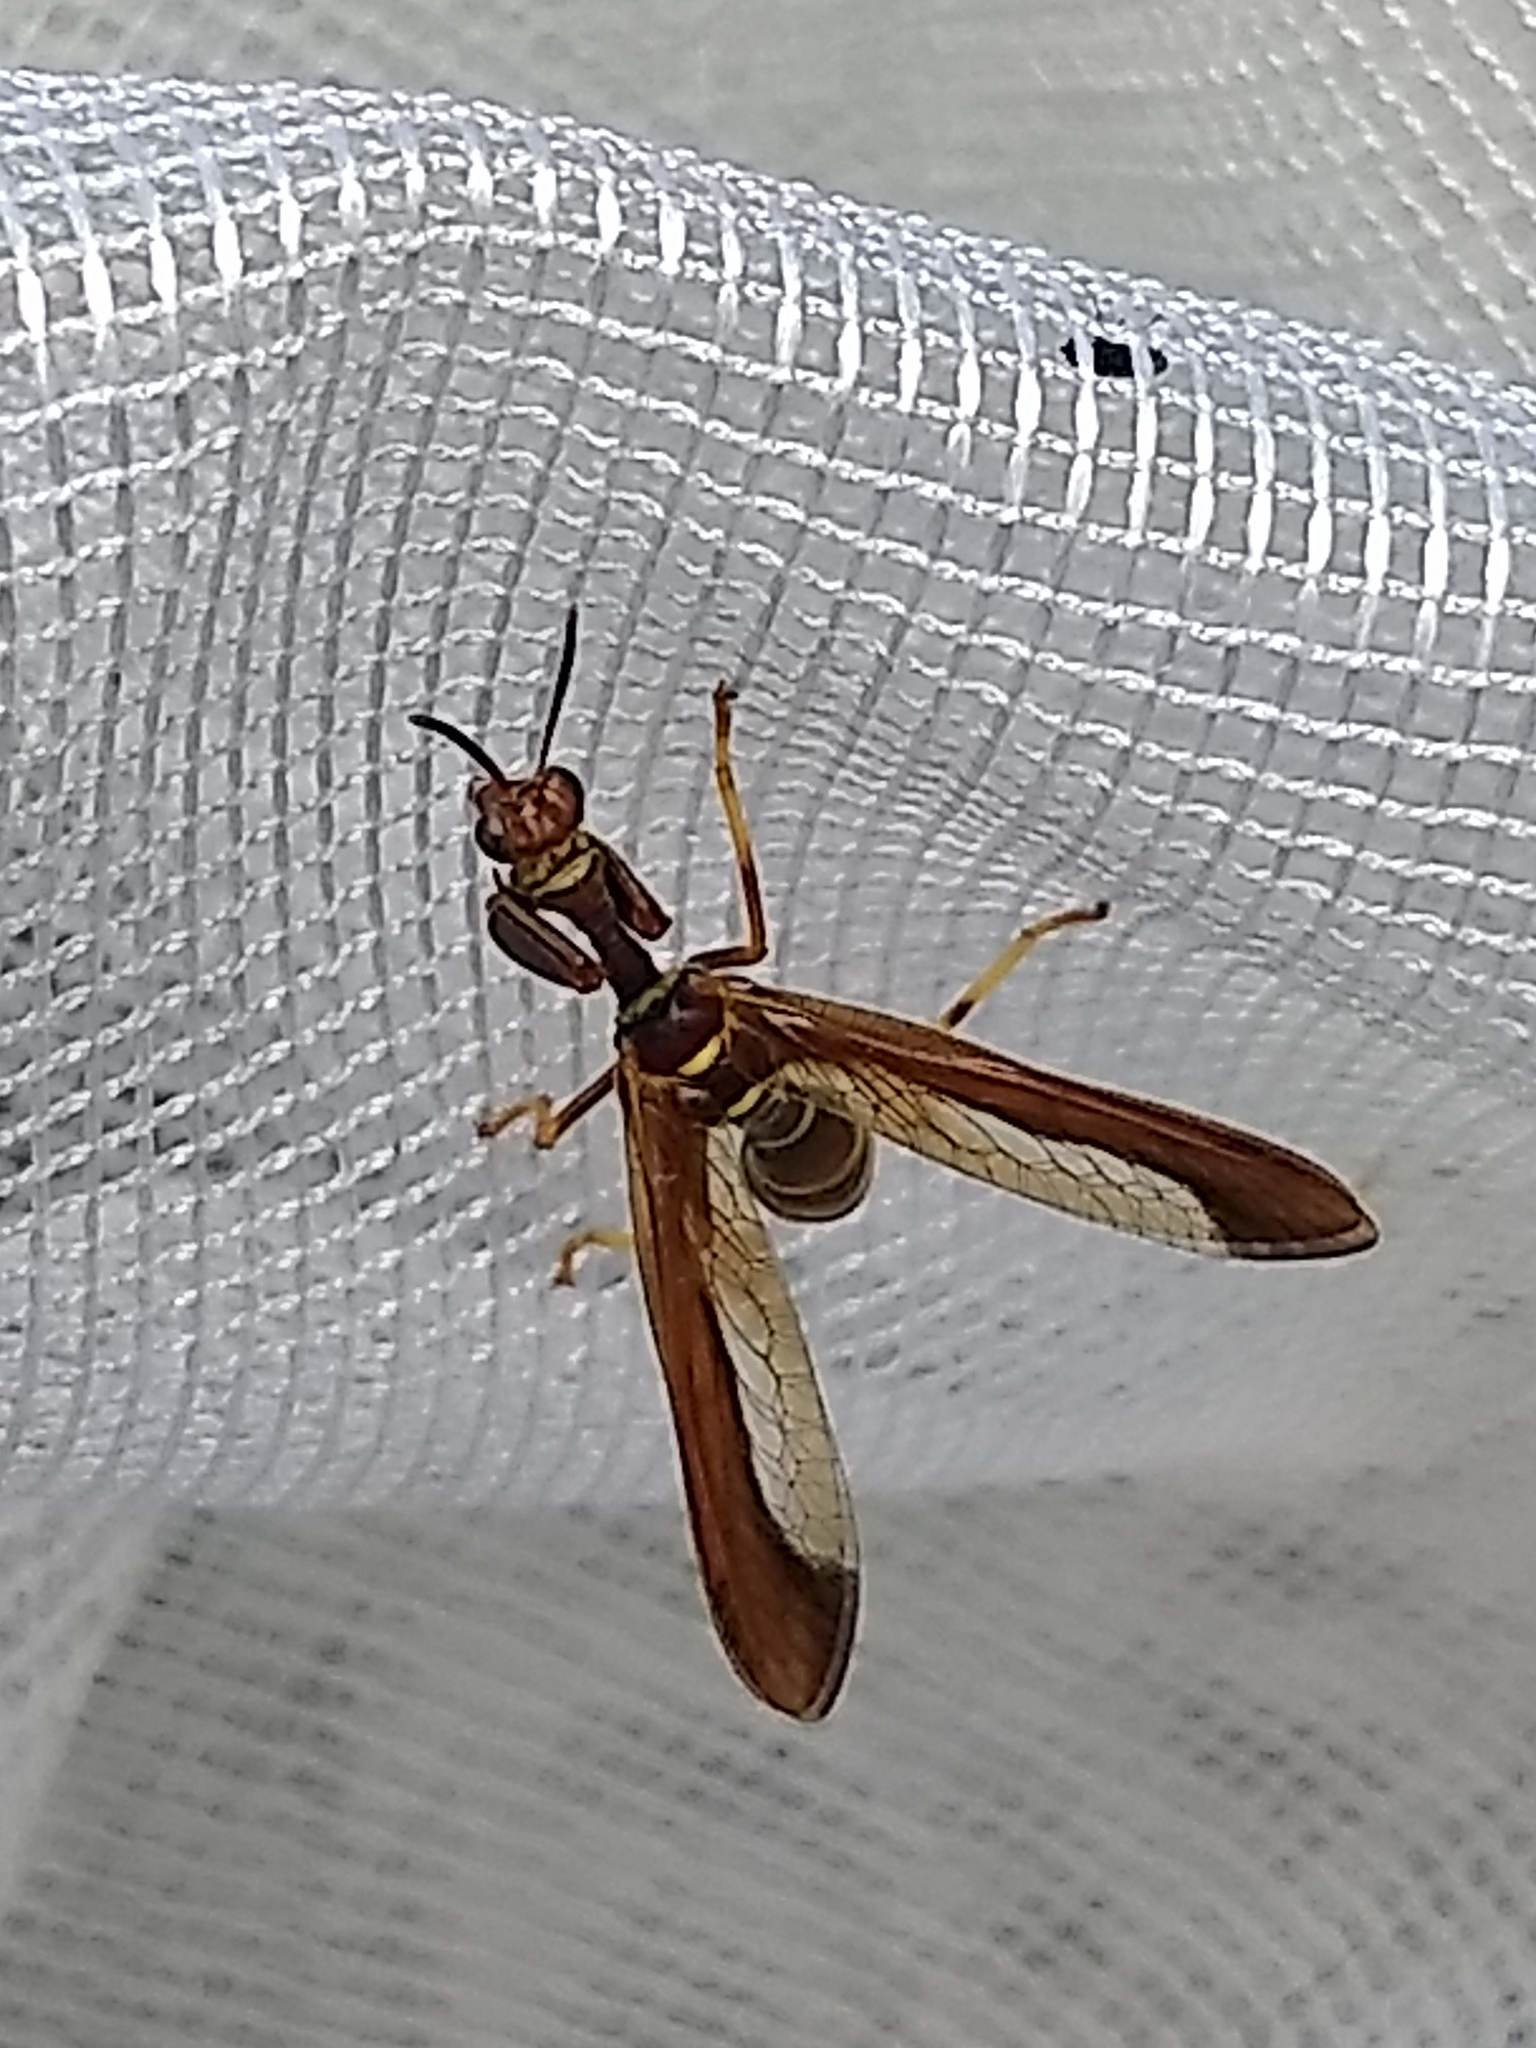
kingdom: Animalia
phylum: Arthropoda
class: Insecta
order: Neuroptera
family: Mantispidae
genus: Climaciella
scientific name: Climaciella brunnea
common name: Brown wasp mantidfly
